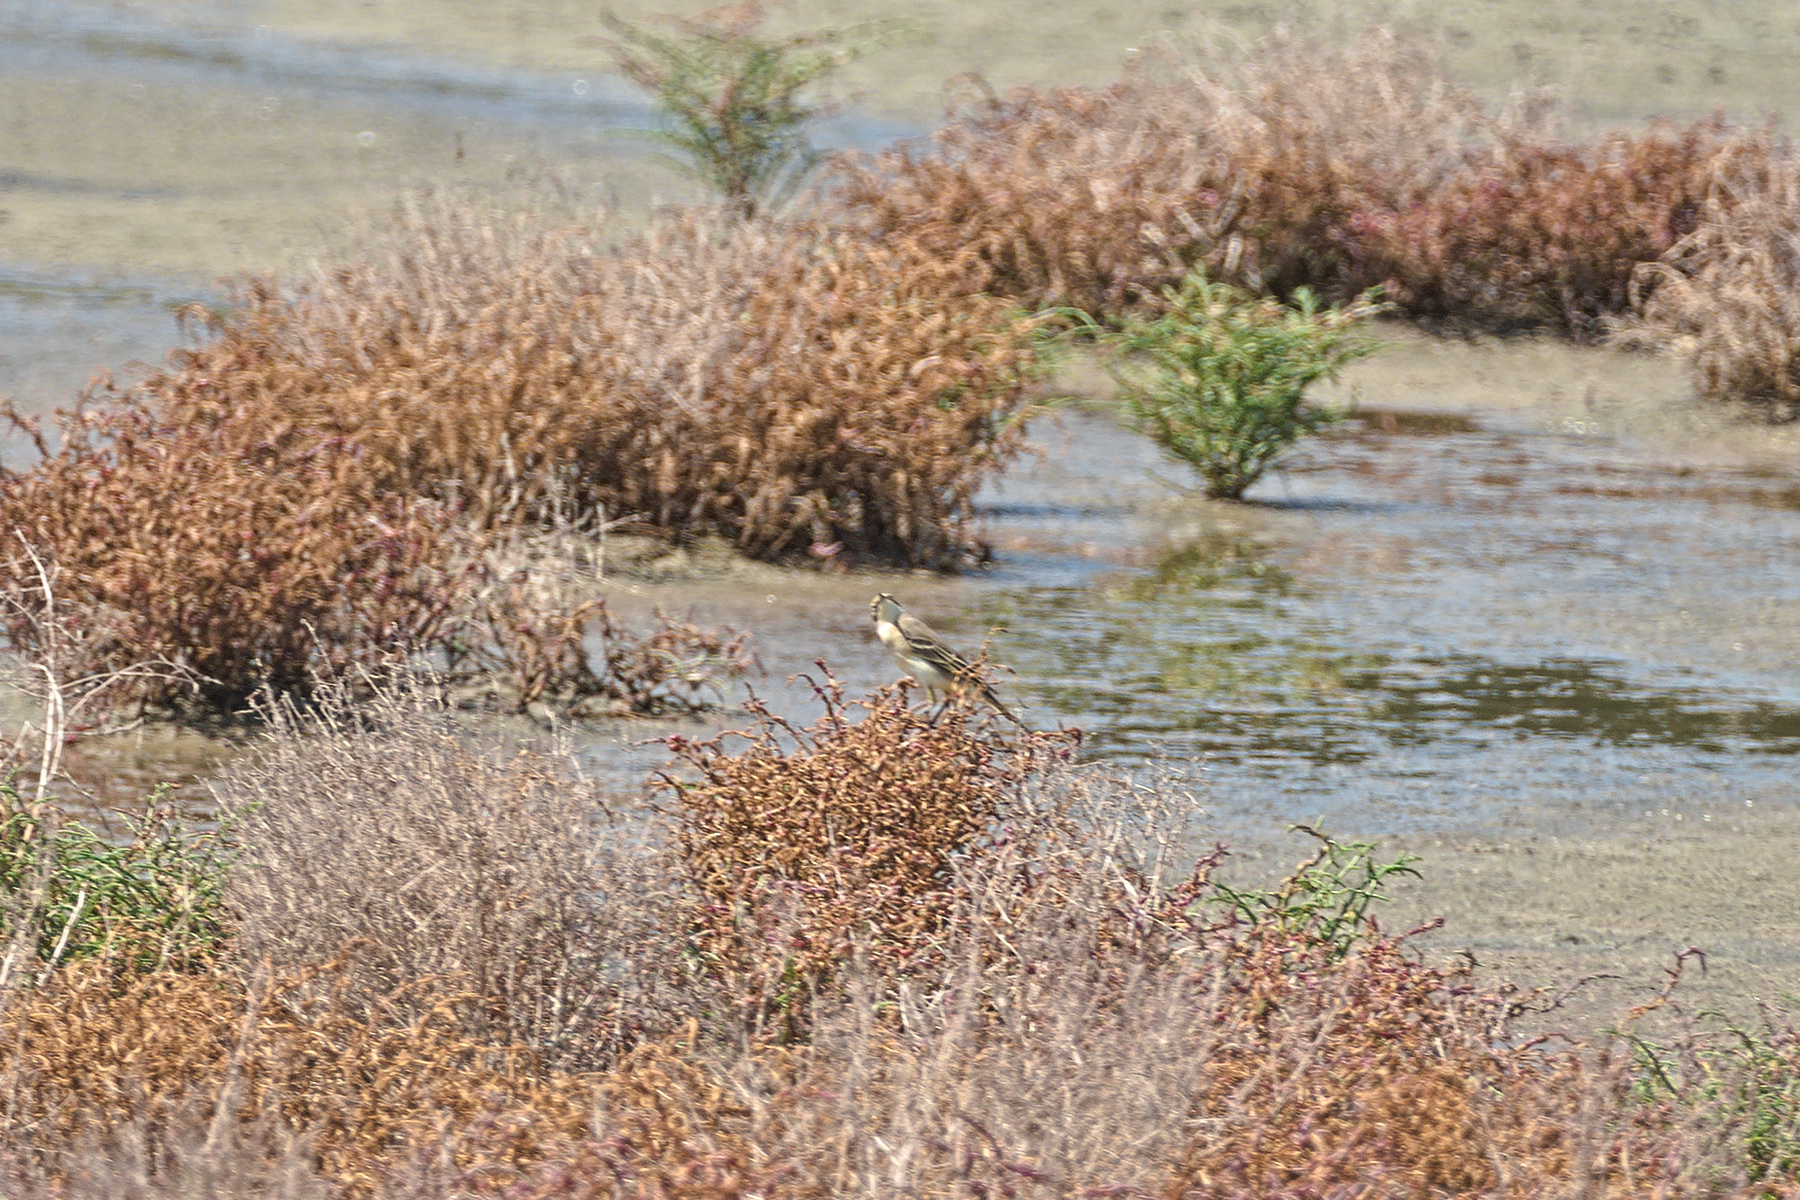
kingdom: Animalia
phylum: Chordata
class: Aves
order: Passeriformes
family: Motacillidae
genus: Motacilla
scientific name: Motacilla flava
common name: Western yellow wagtail
